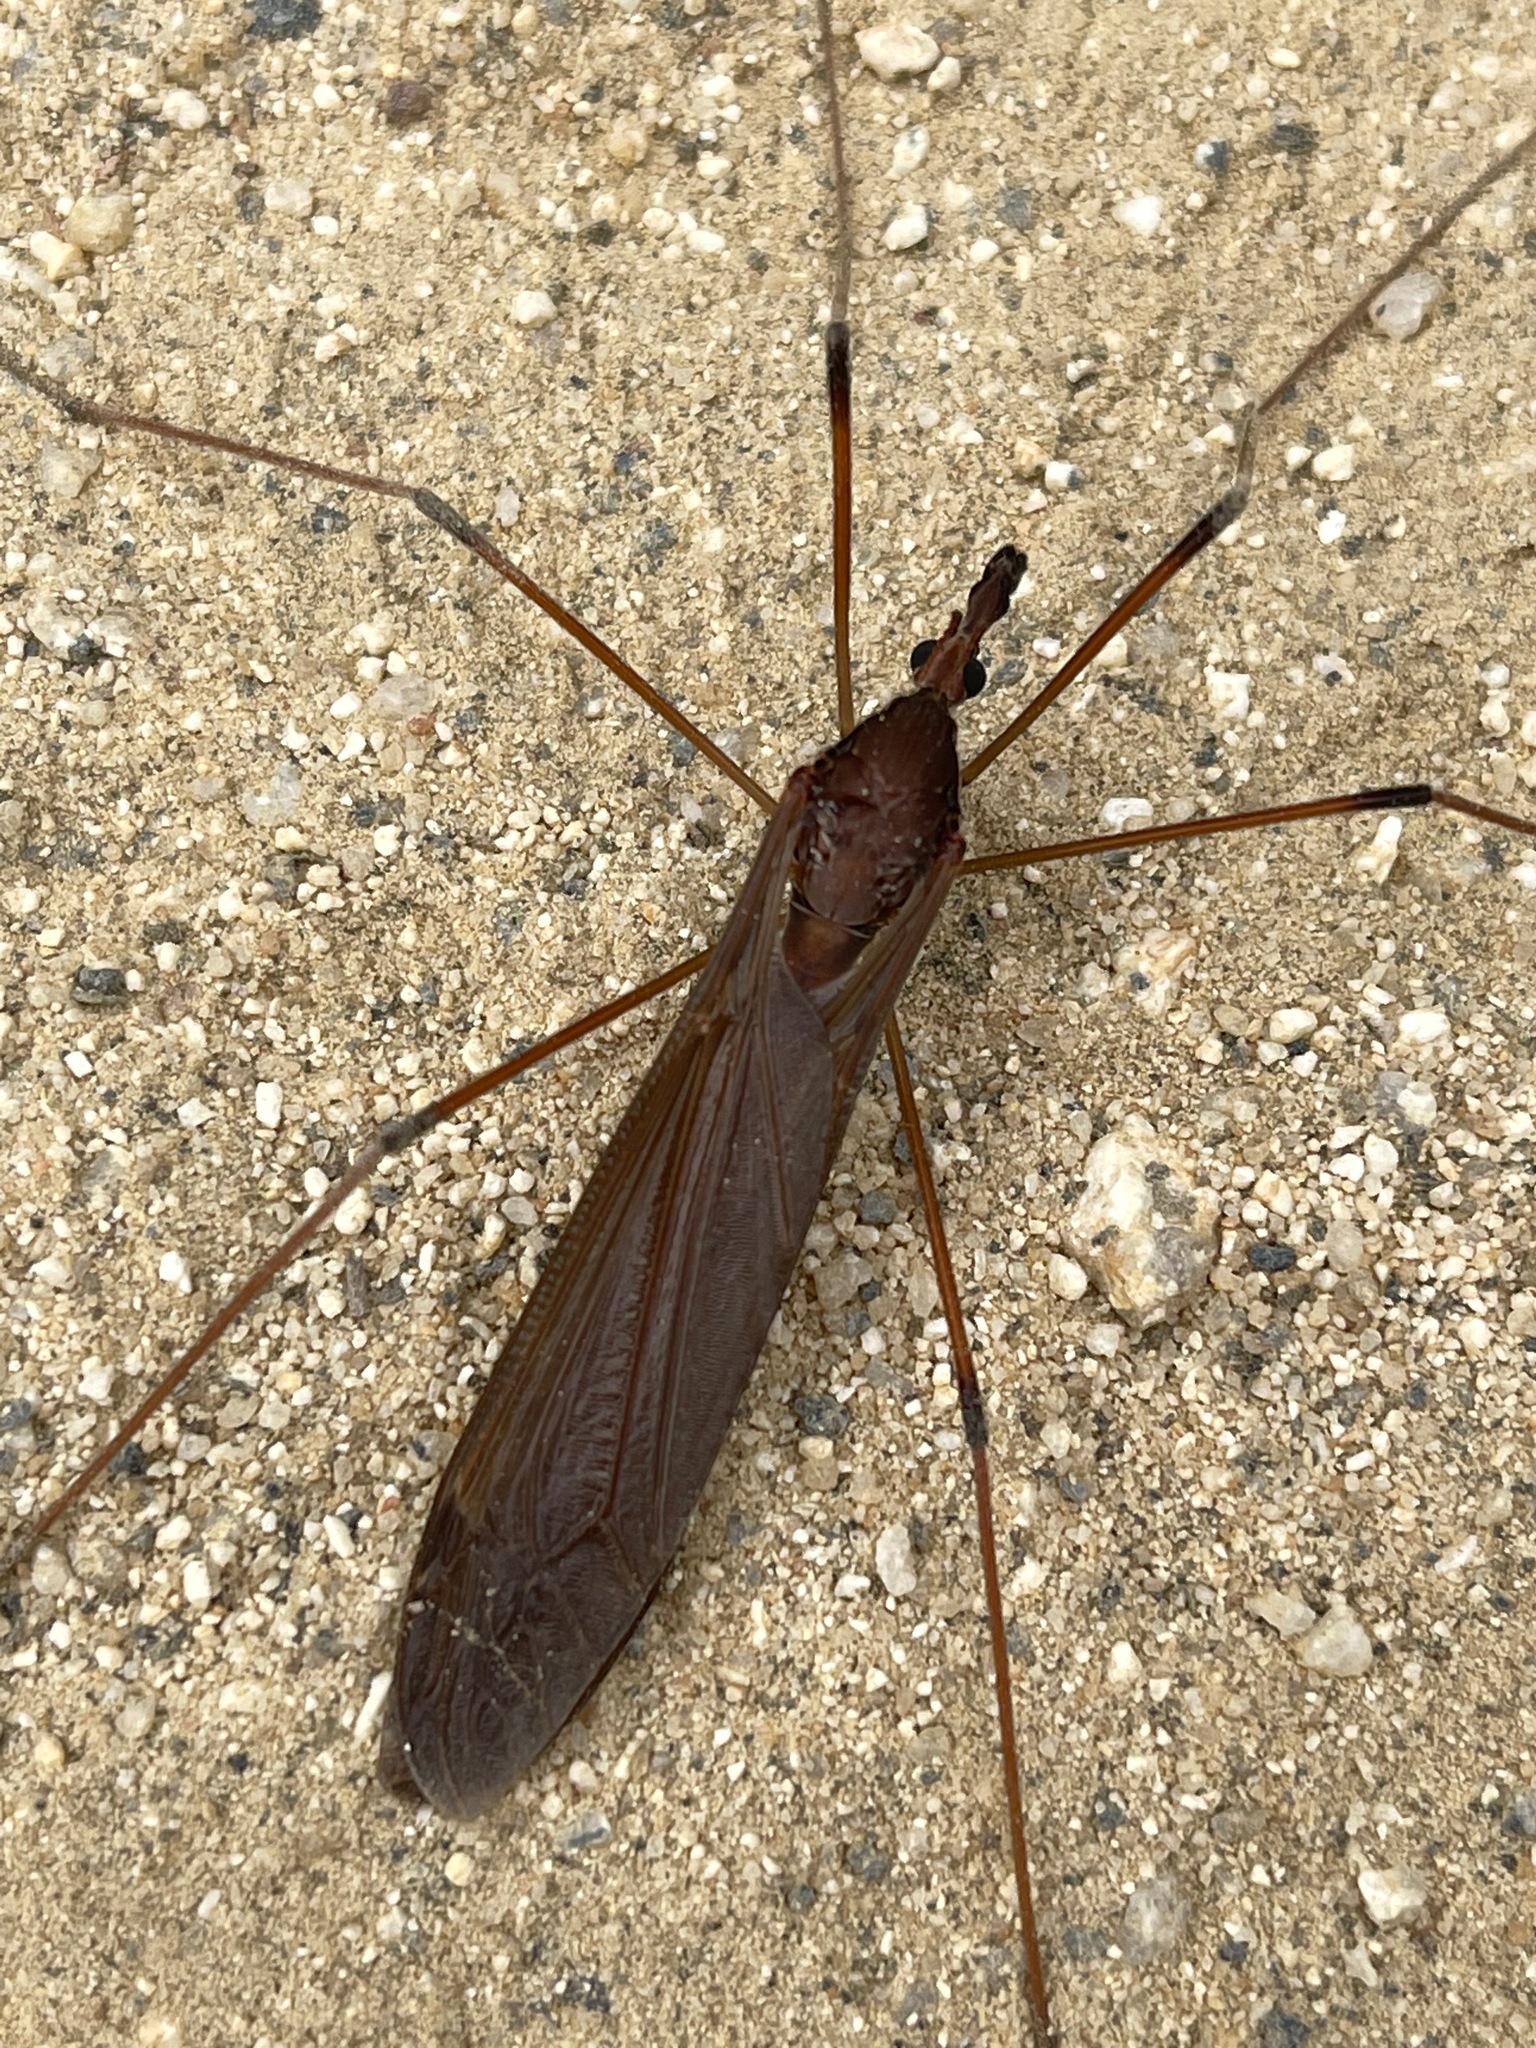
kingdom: Animalia
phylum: Arthropoda
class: Insecta
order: Diptera
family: Tipulidae
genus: Holorusia
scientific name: Holorusia hespera
